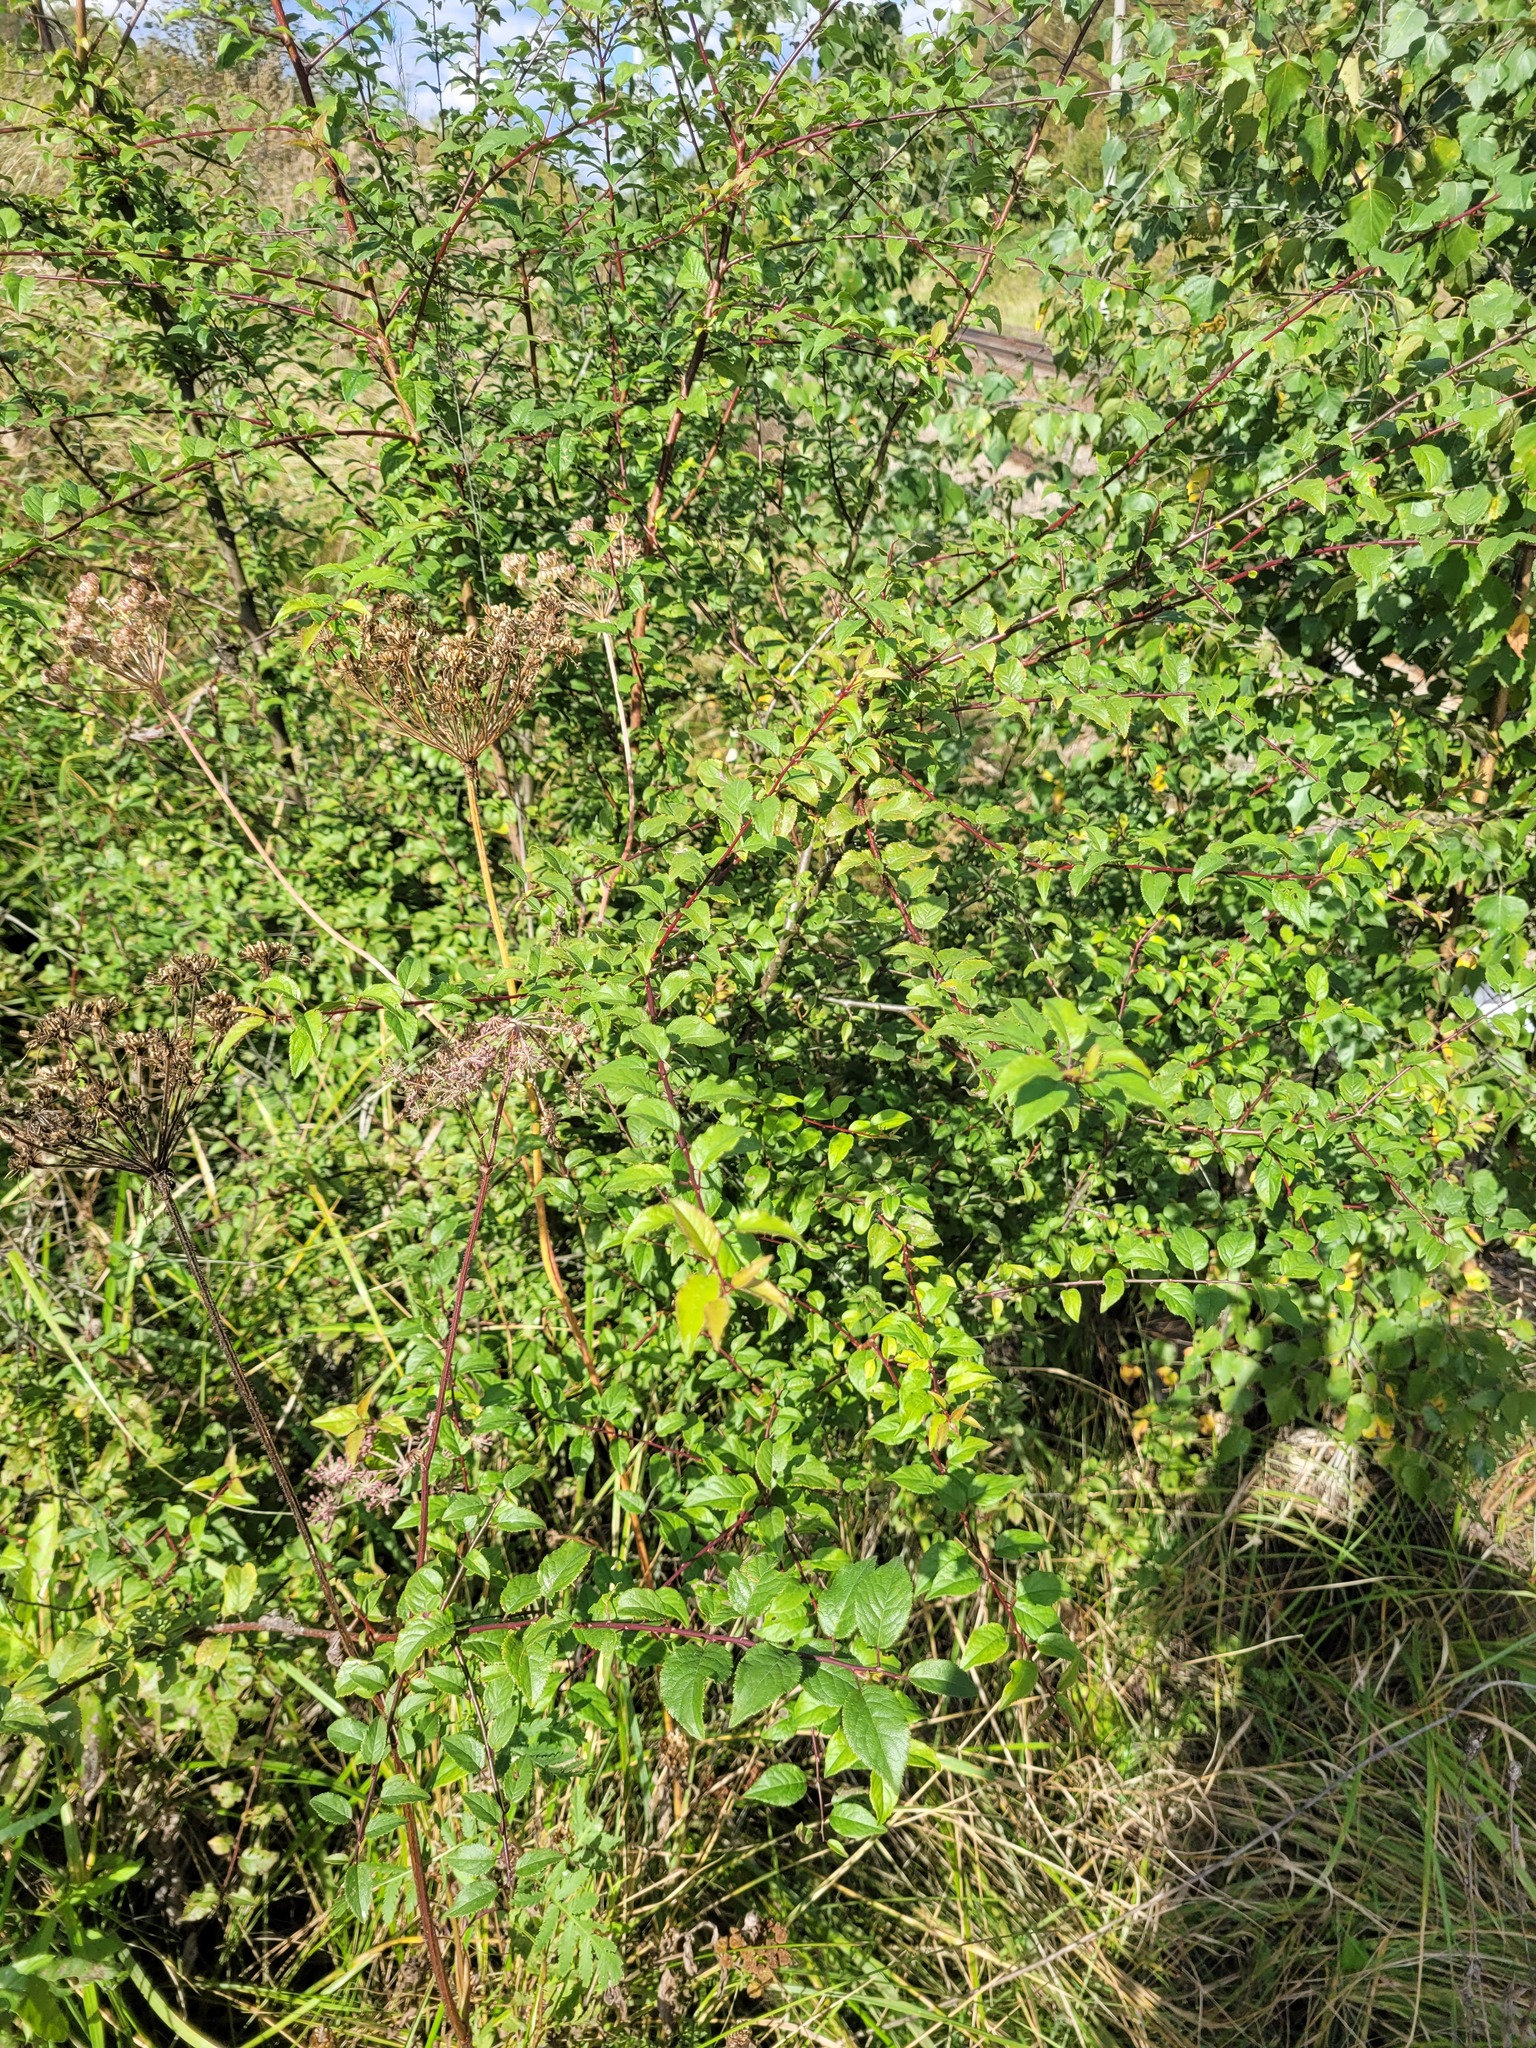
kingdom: Plantae
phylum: Tracheophyta
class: Magnoliopsida
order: Rosales
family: Rosaceae
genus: Prunus
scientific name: Prunus cerasifera
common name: Cherry plum
